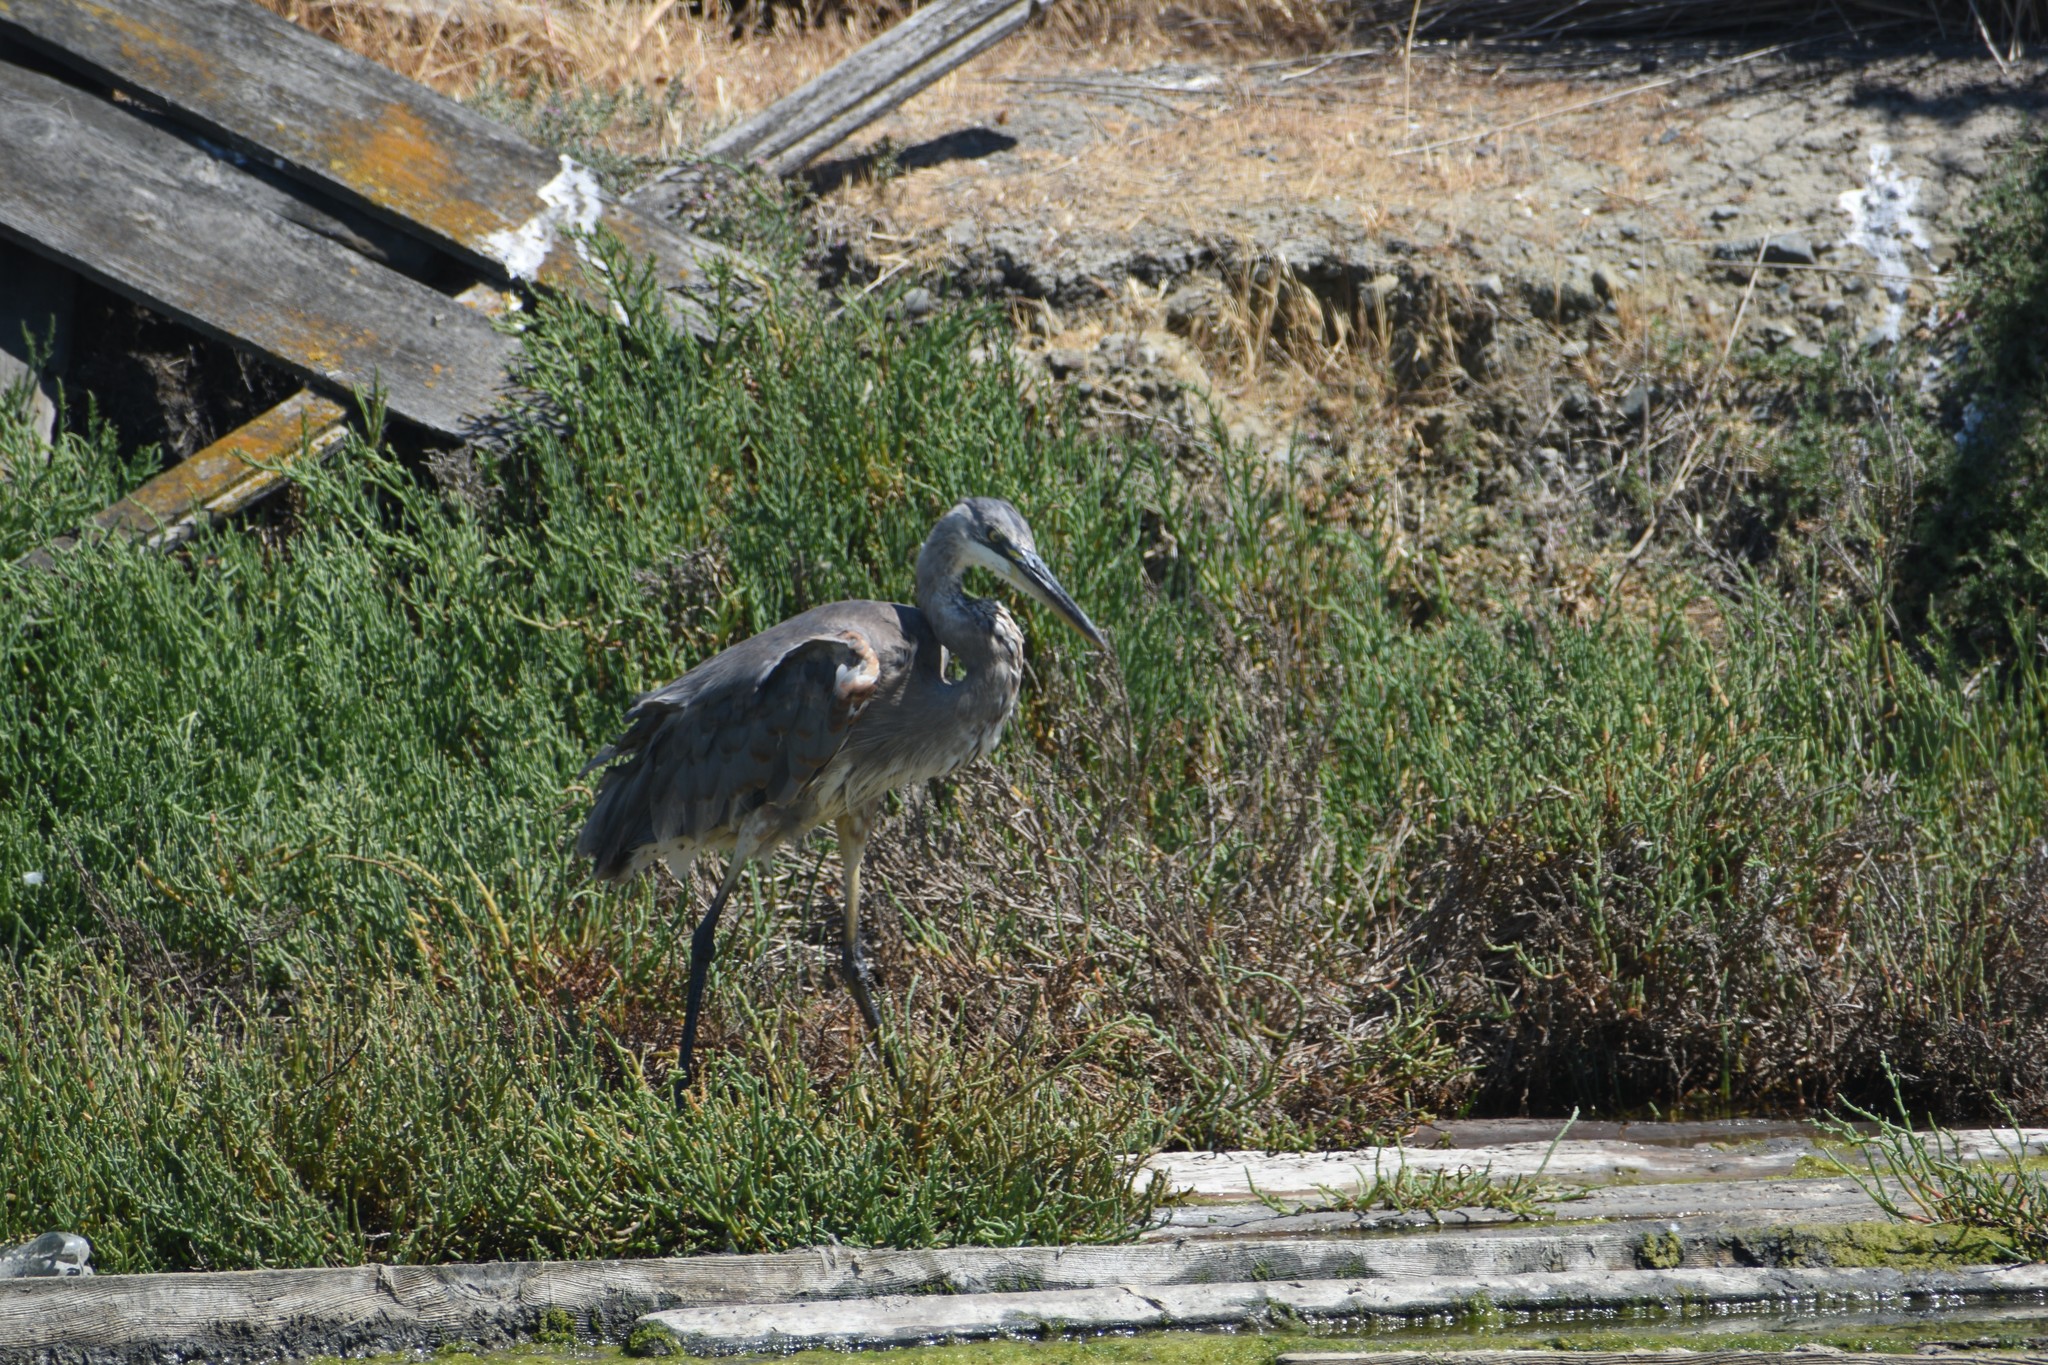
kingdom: Animalia
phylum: Chordata
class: Aves
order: Pelecaniformes
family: Ardeidae
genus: Ardea
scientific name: Ardea herodias
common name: Great blue heron
